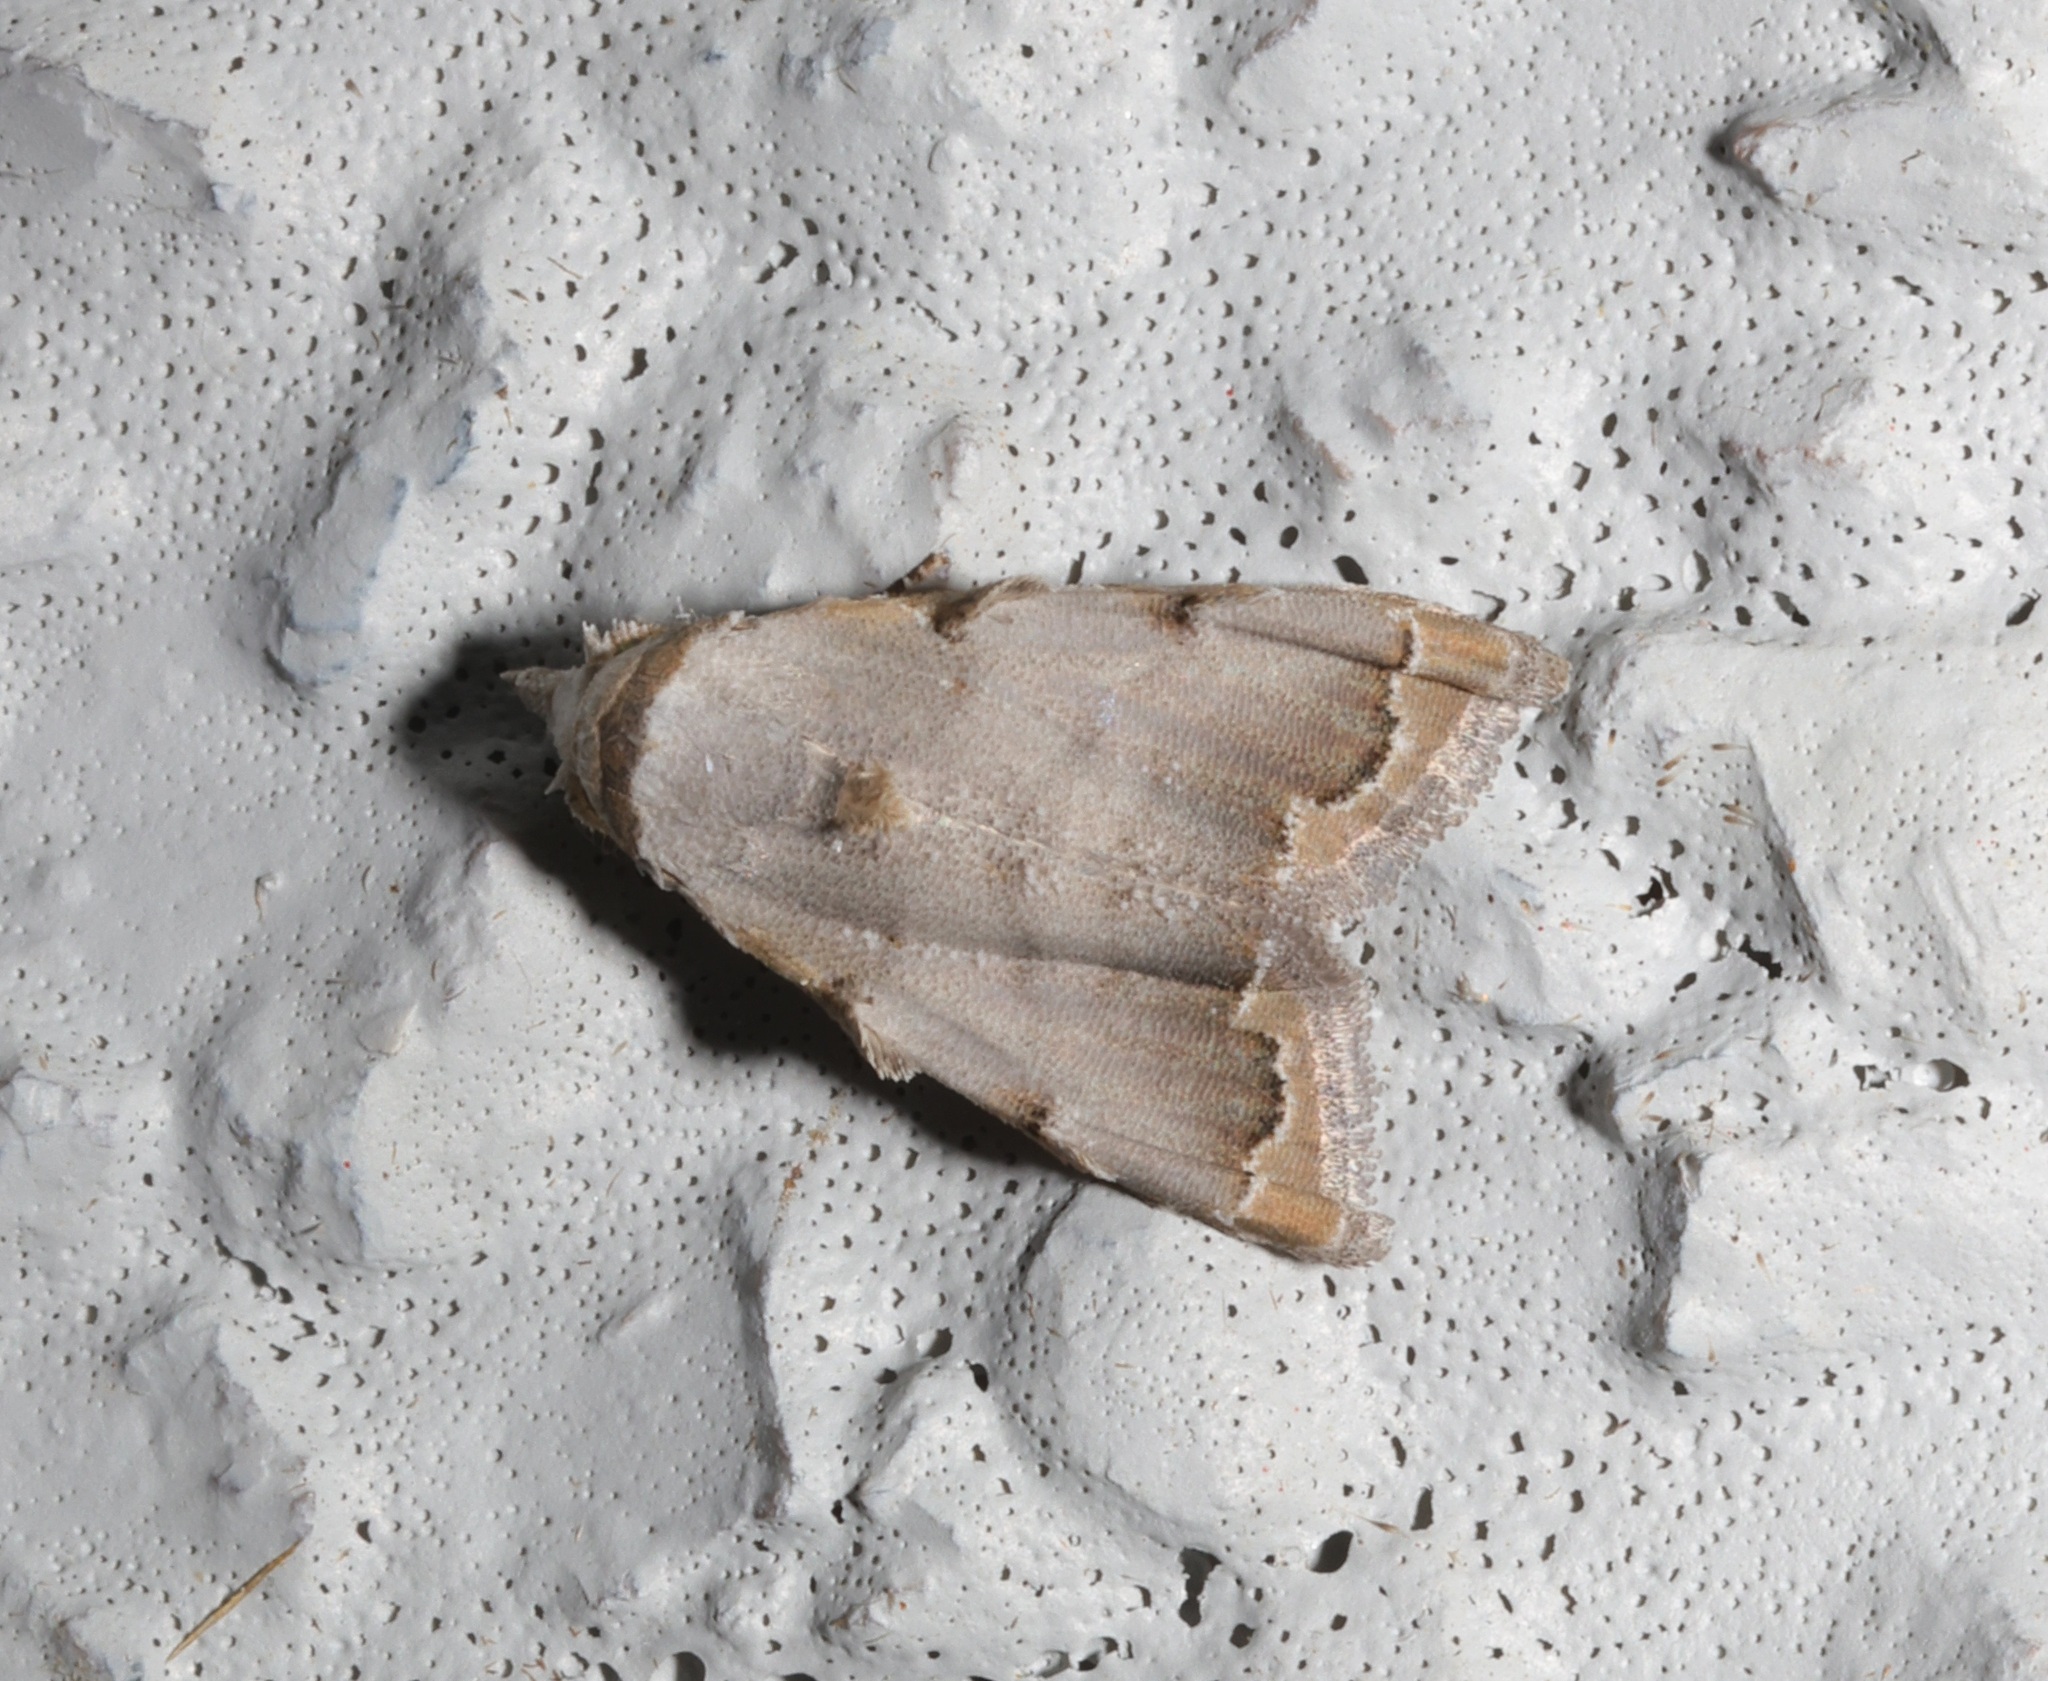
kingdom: Animalia
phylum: Arthropoda
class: Insecta
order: Lepidoptera
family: Nolidae
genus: Nola
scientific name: Nola marginata
